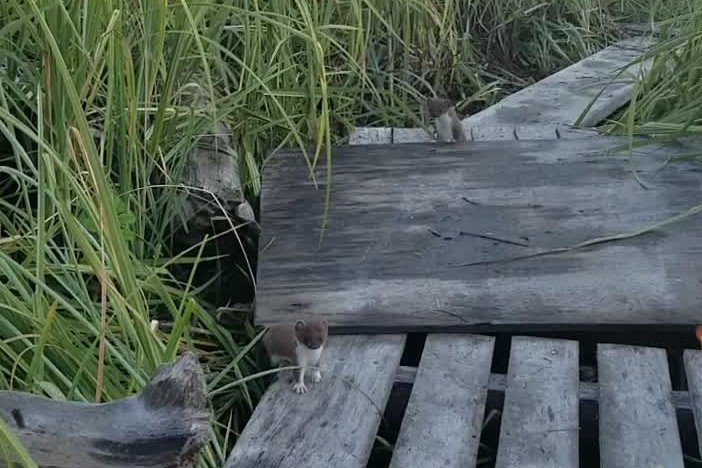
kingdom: Animalia
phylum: Chordata
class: Mammalia
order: Carnivora
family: Mustelidae
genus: Mustela
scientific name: Mustela erminea
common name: Stoat
